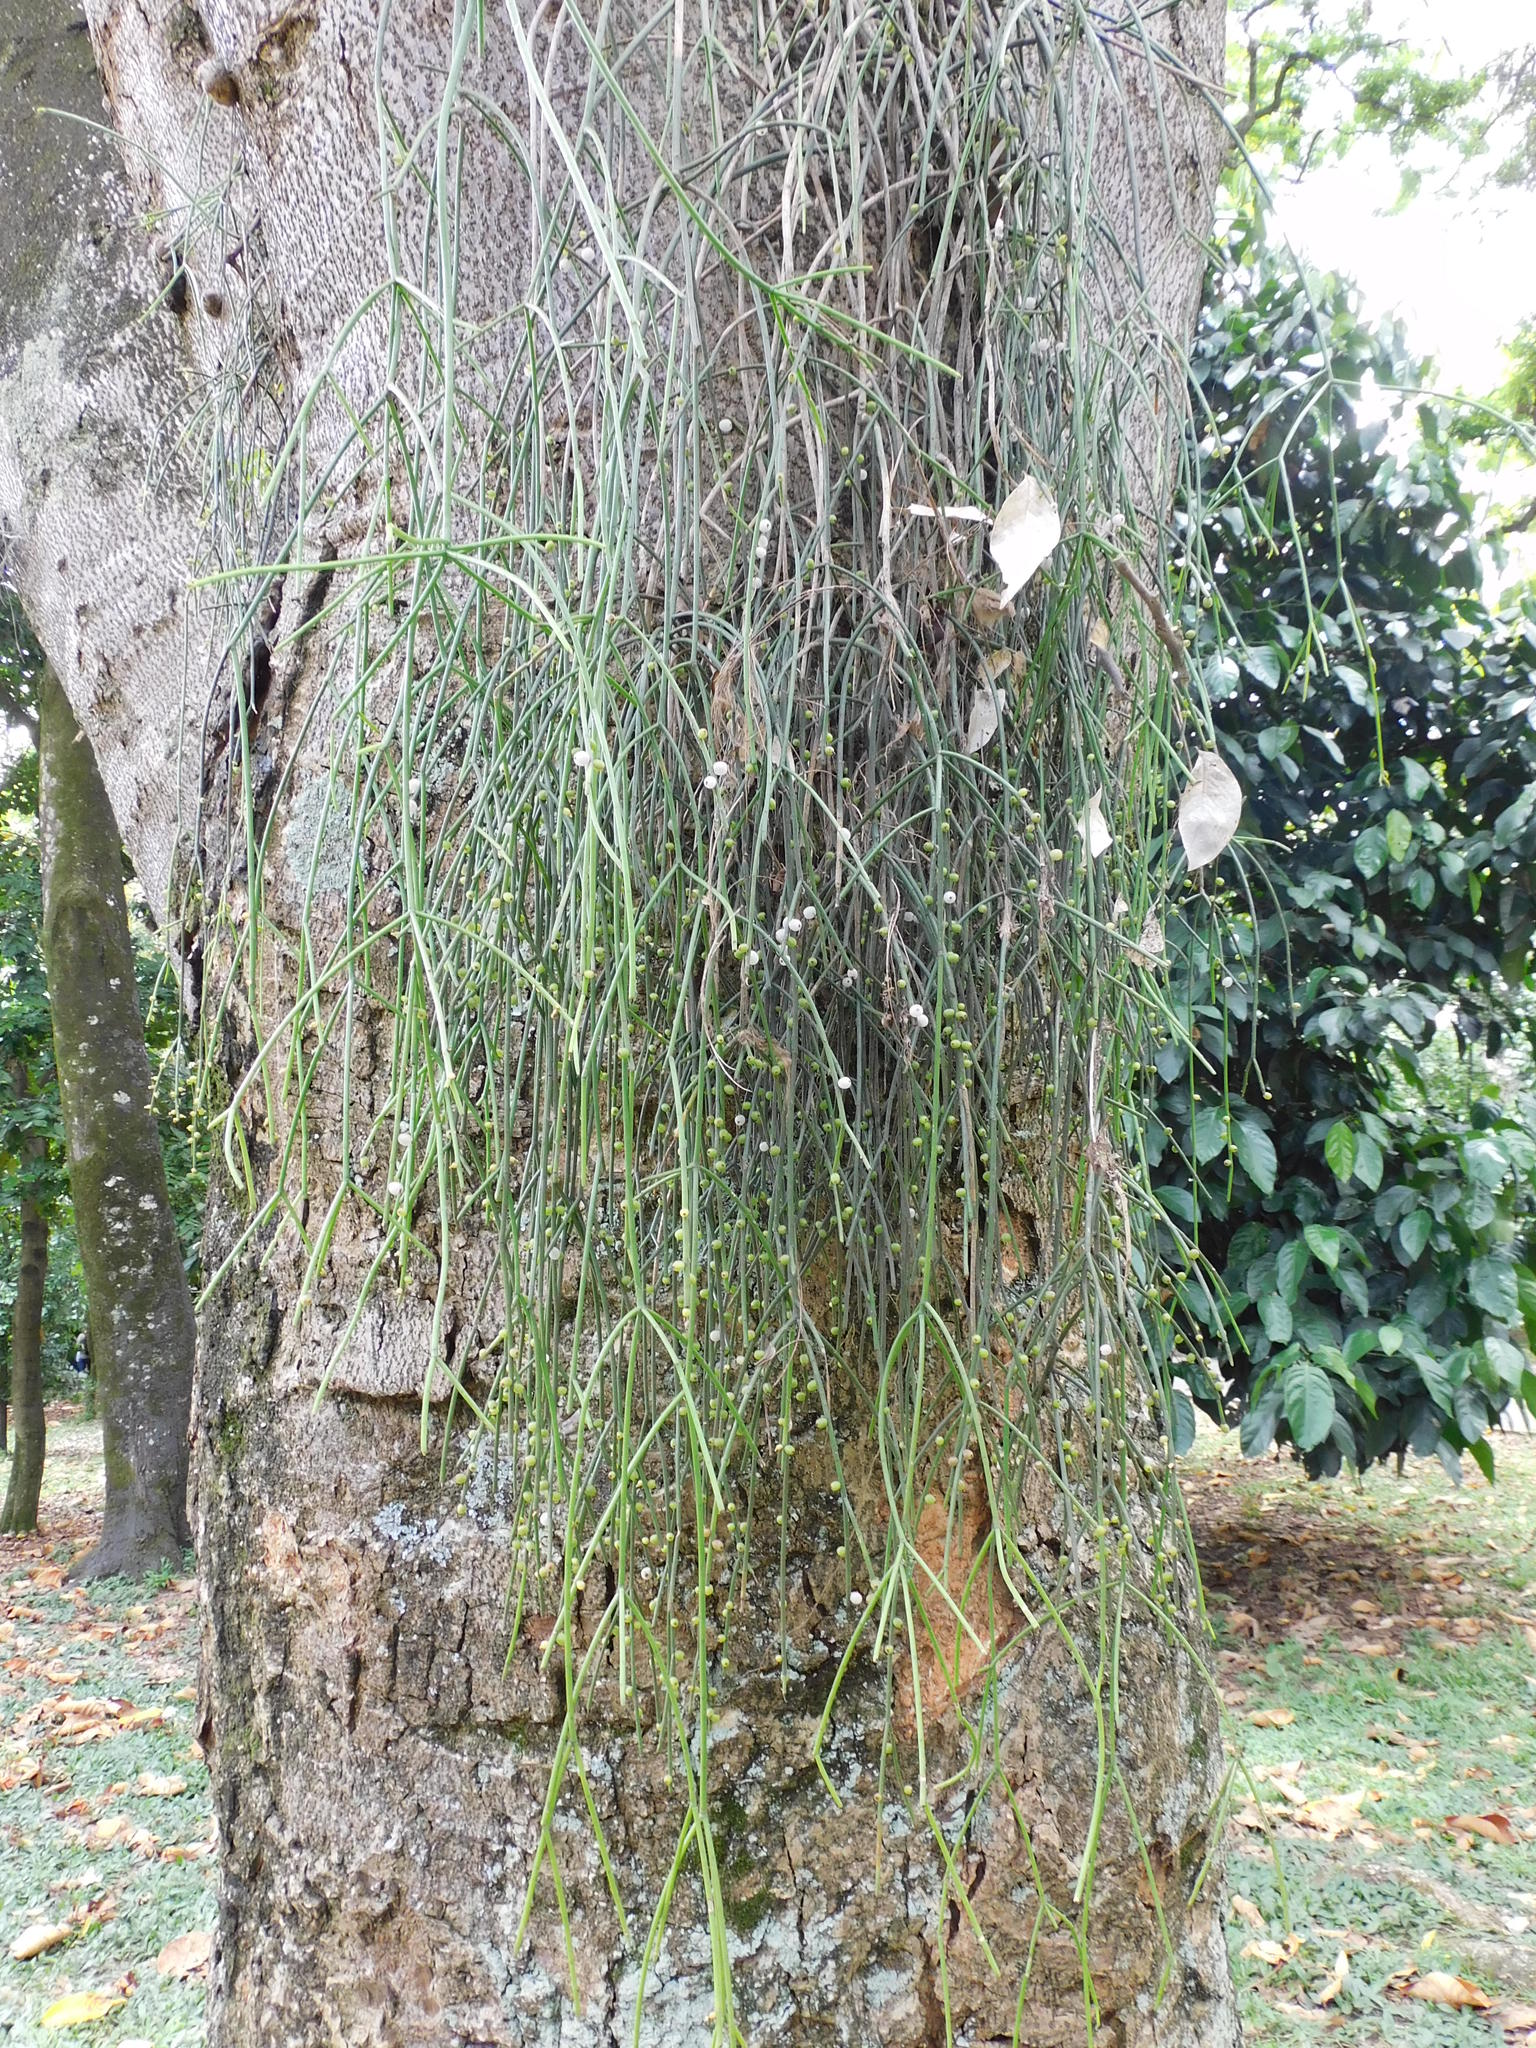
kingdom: Plantae
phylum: Tracheophyta
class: Magnoliopsida
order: Caryophyllales
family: Cactaceae
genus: Rhipsalis
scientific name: Rhipsalis baccifera
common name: Mistletoe cactus
